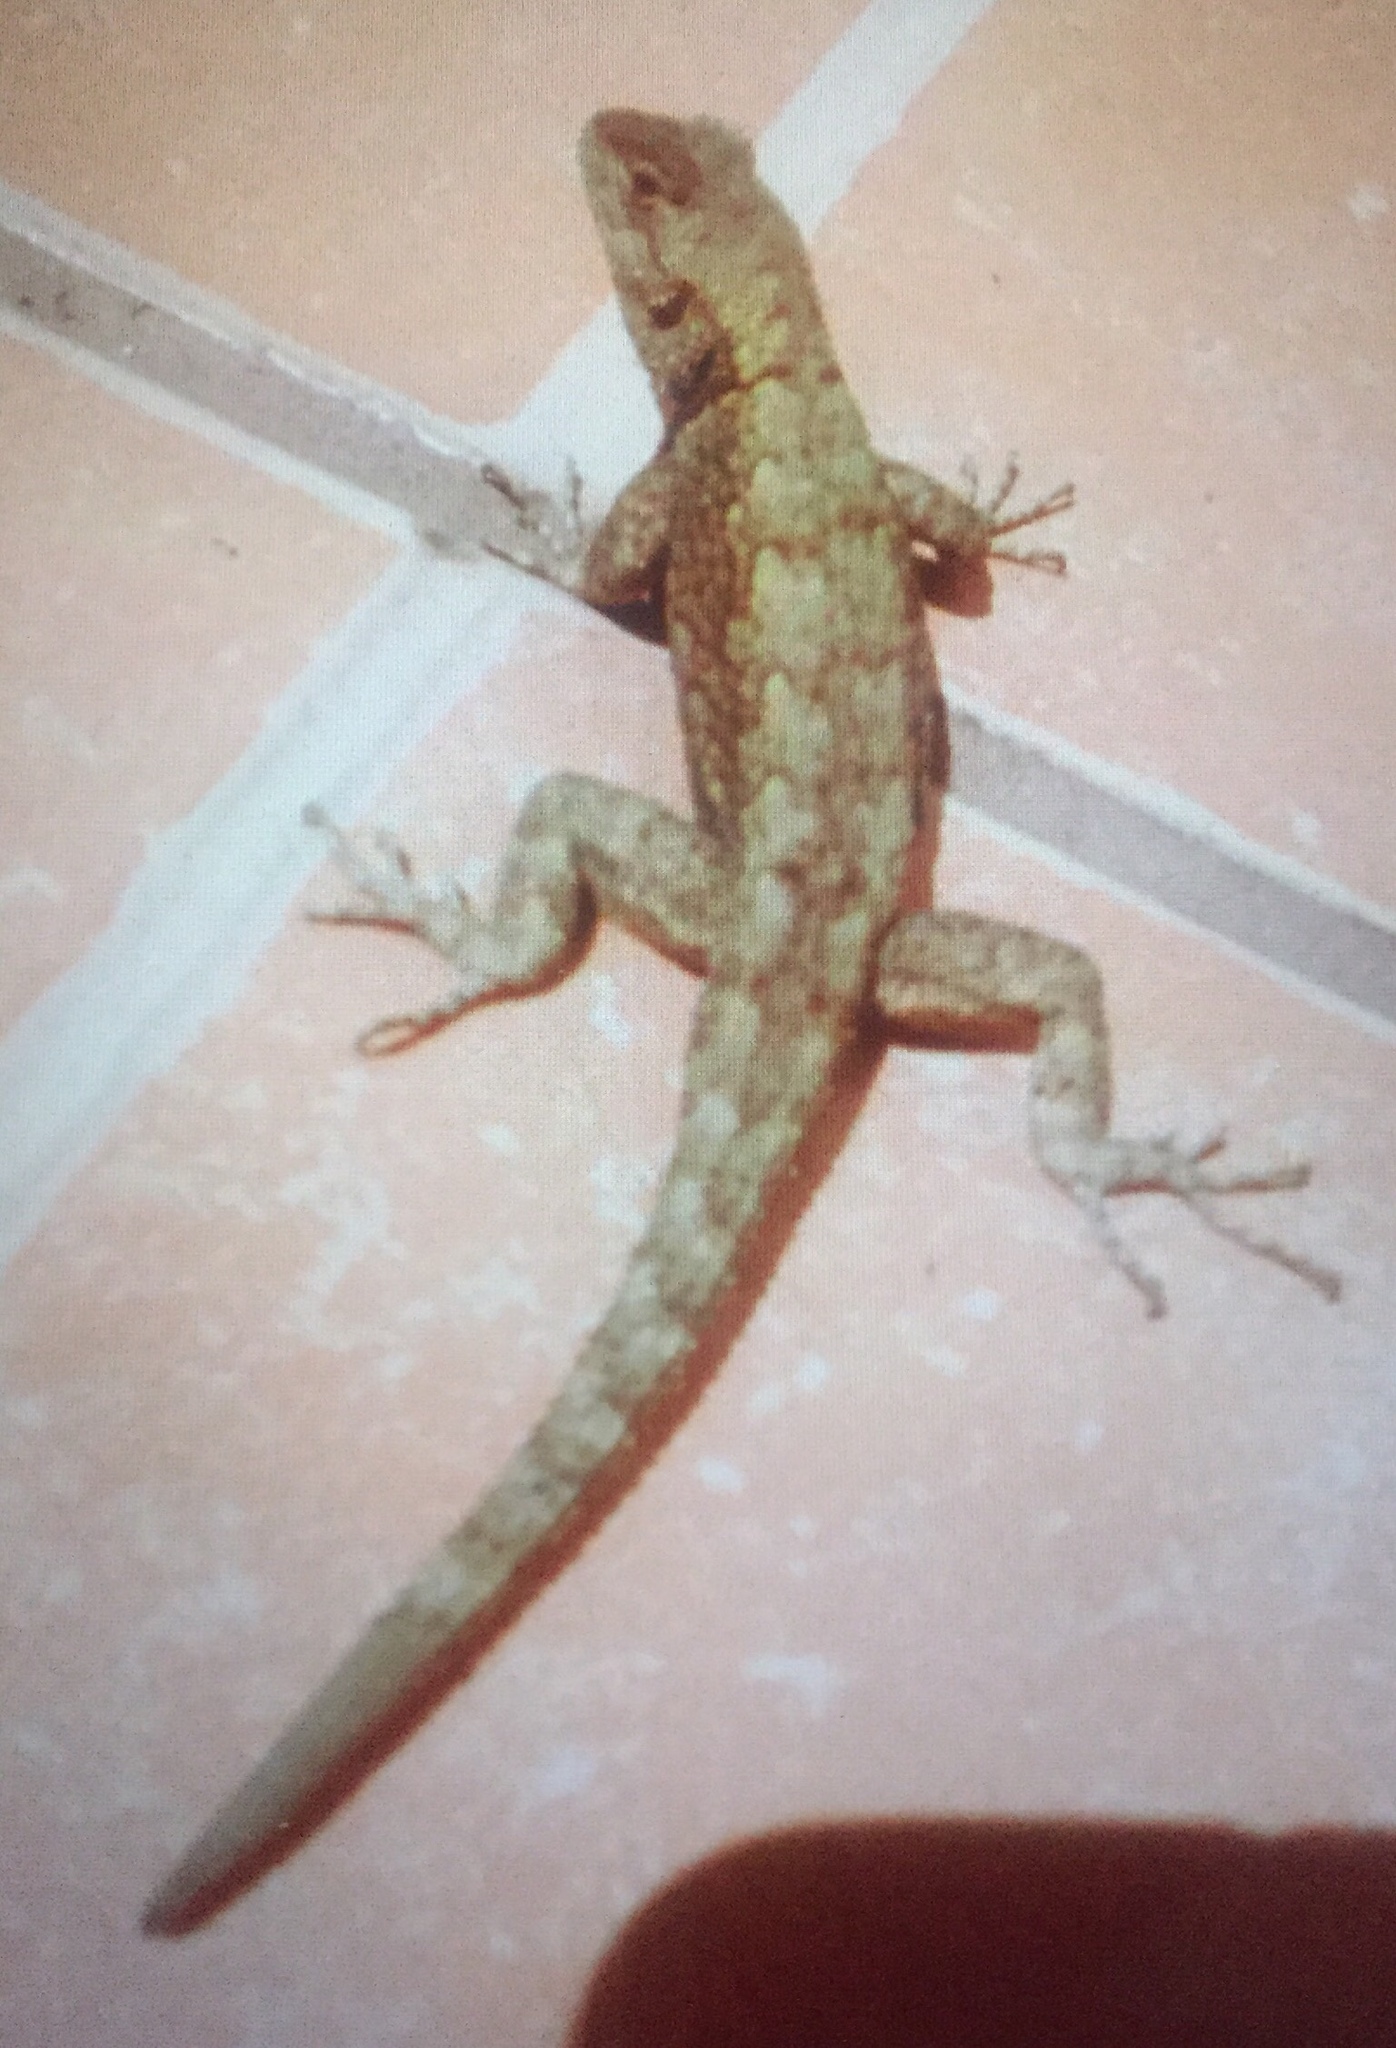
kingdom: Animalia
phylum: Chordata
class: Squamata
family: Phrynosomatidae
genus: Sceloporus
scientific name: Sceloporus grammicus
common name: Mesquite lizard
